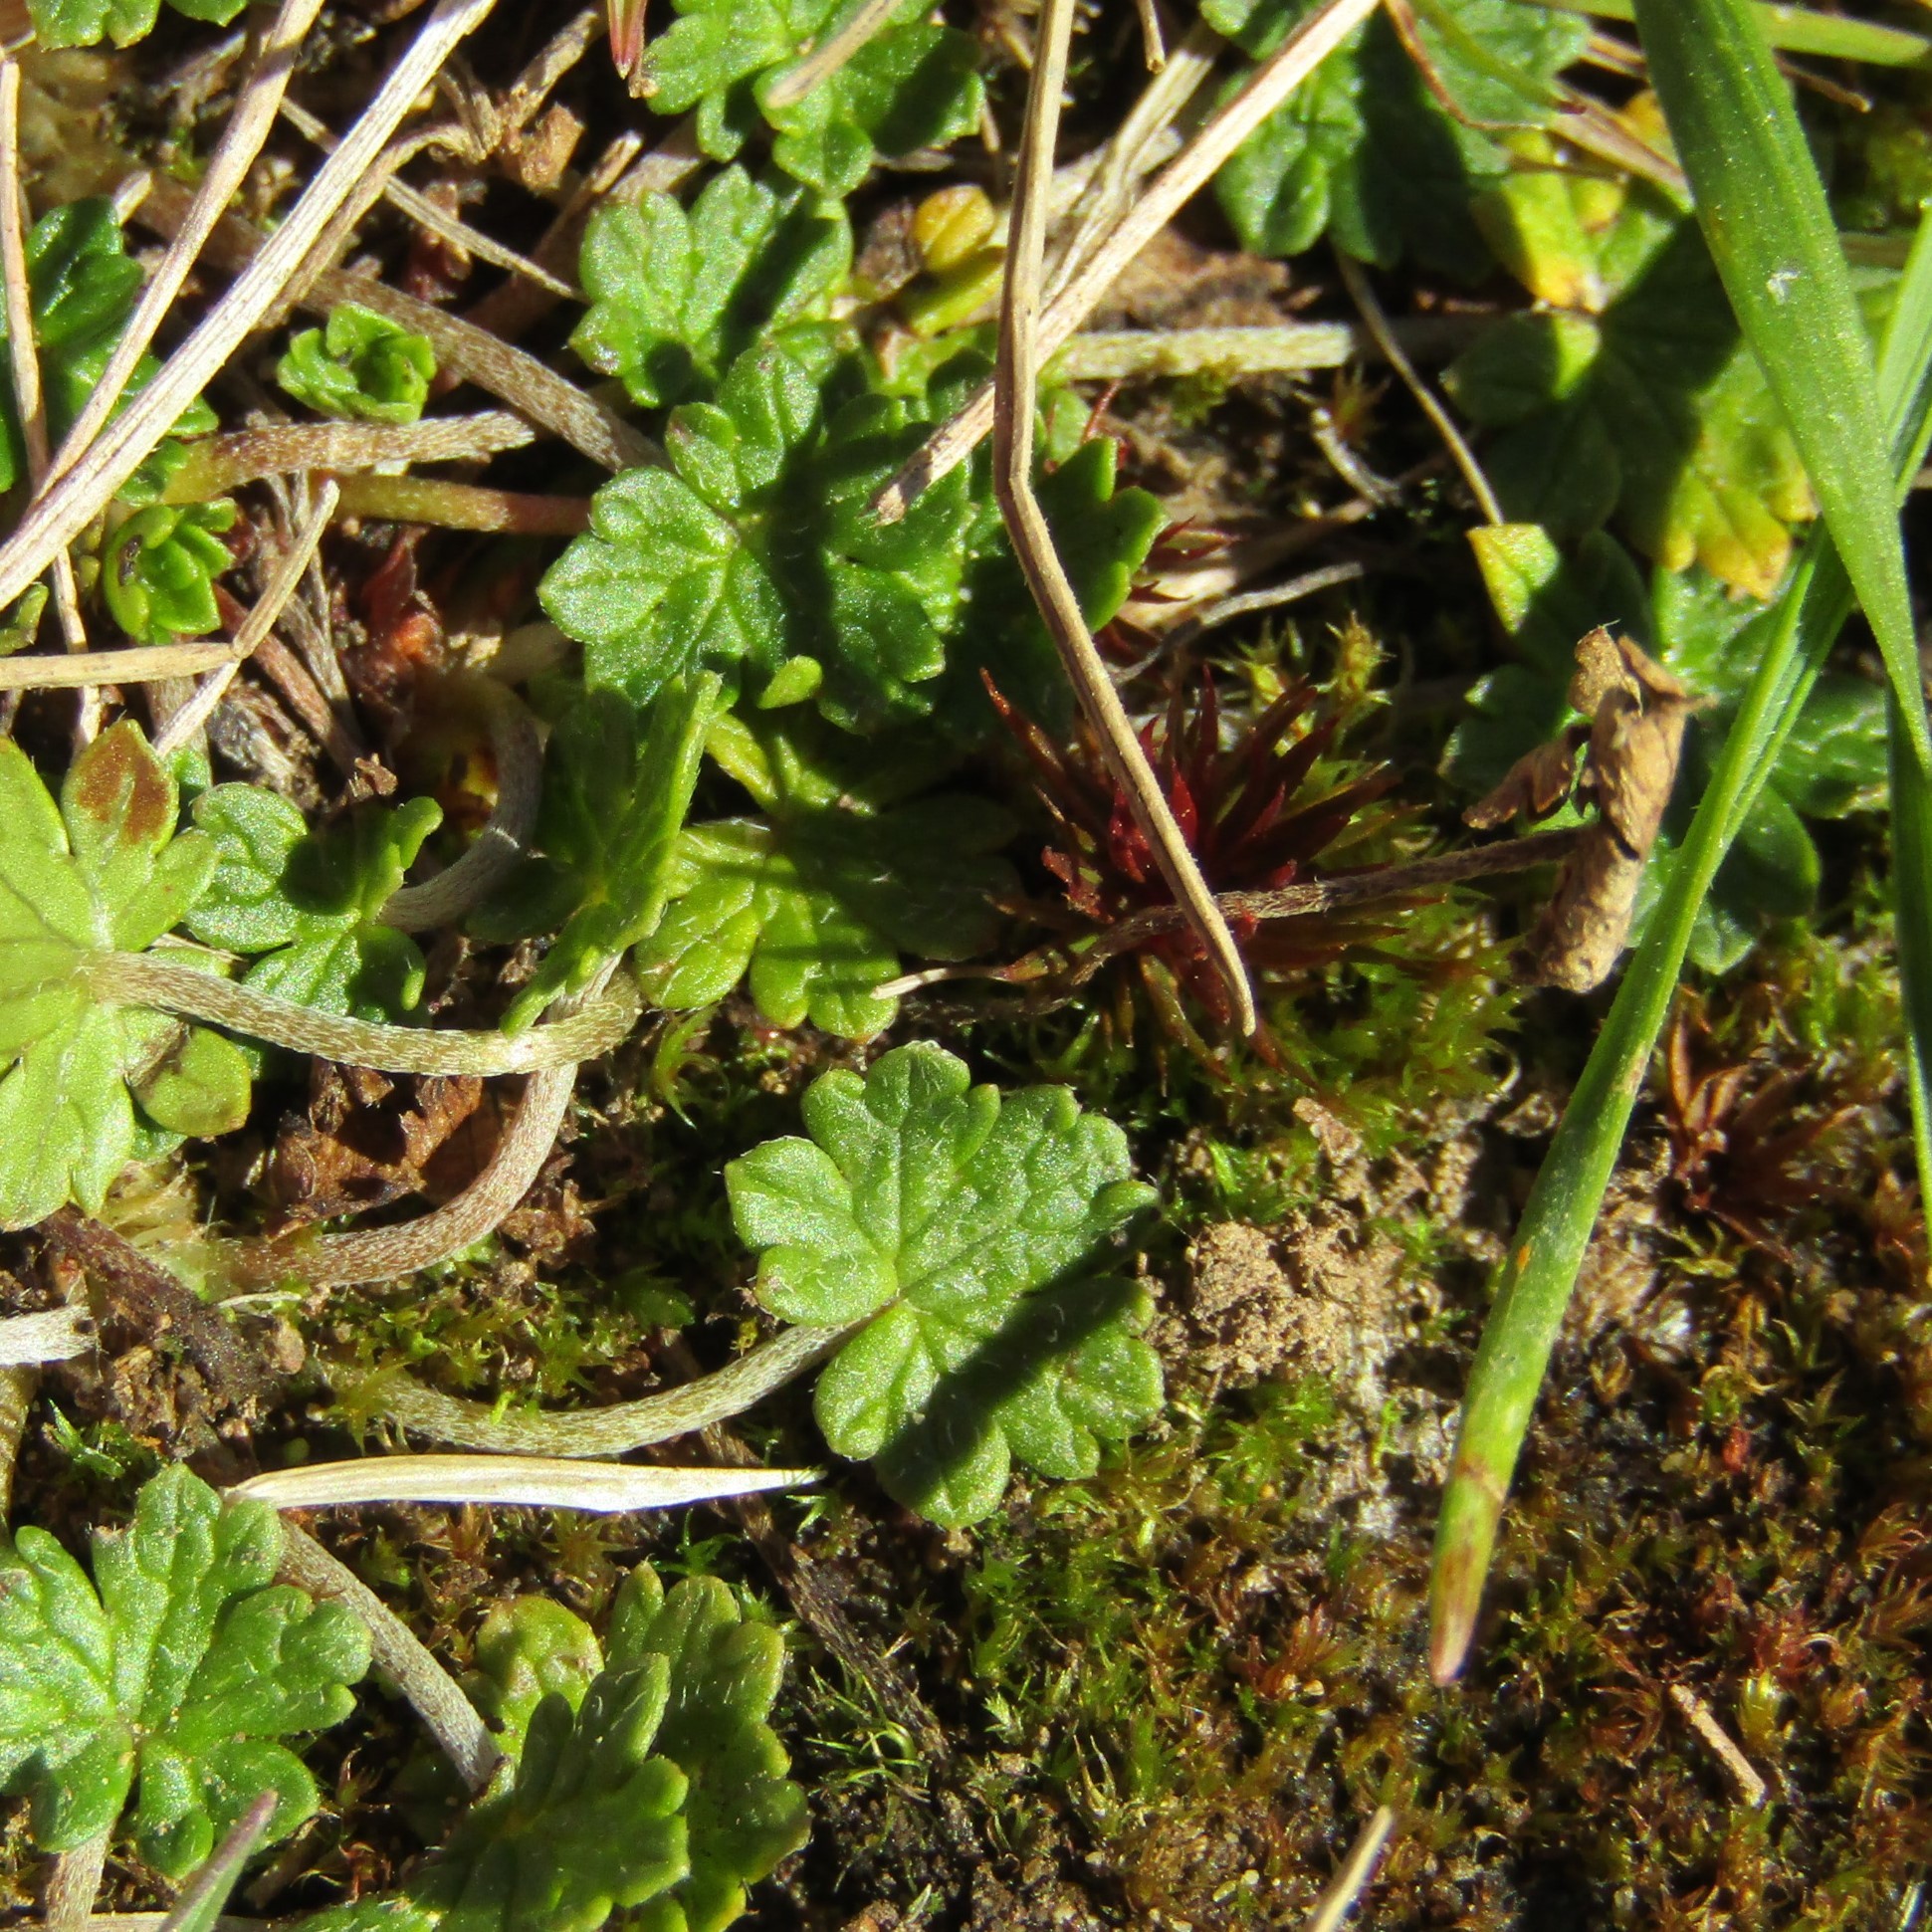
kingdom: Plantae
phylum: Tracheophyta
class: Magnoliopsida
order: Geraniales
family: Geraniaceae
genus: Geranium
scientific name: Geranium brevicaule
